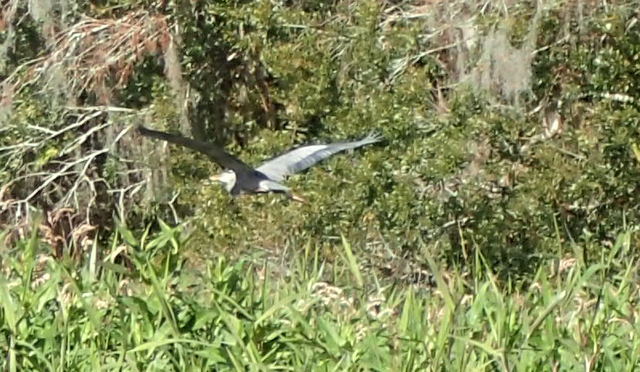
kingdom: Animalia
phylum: Chordata
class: Aves
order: Pelecaniformes
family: Ardeidae
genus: Ardea
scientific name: Ardea herodias
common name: Great blue heron
